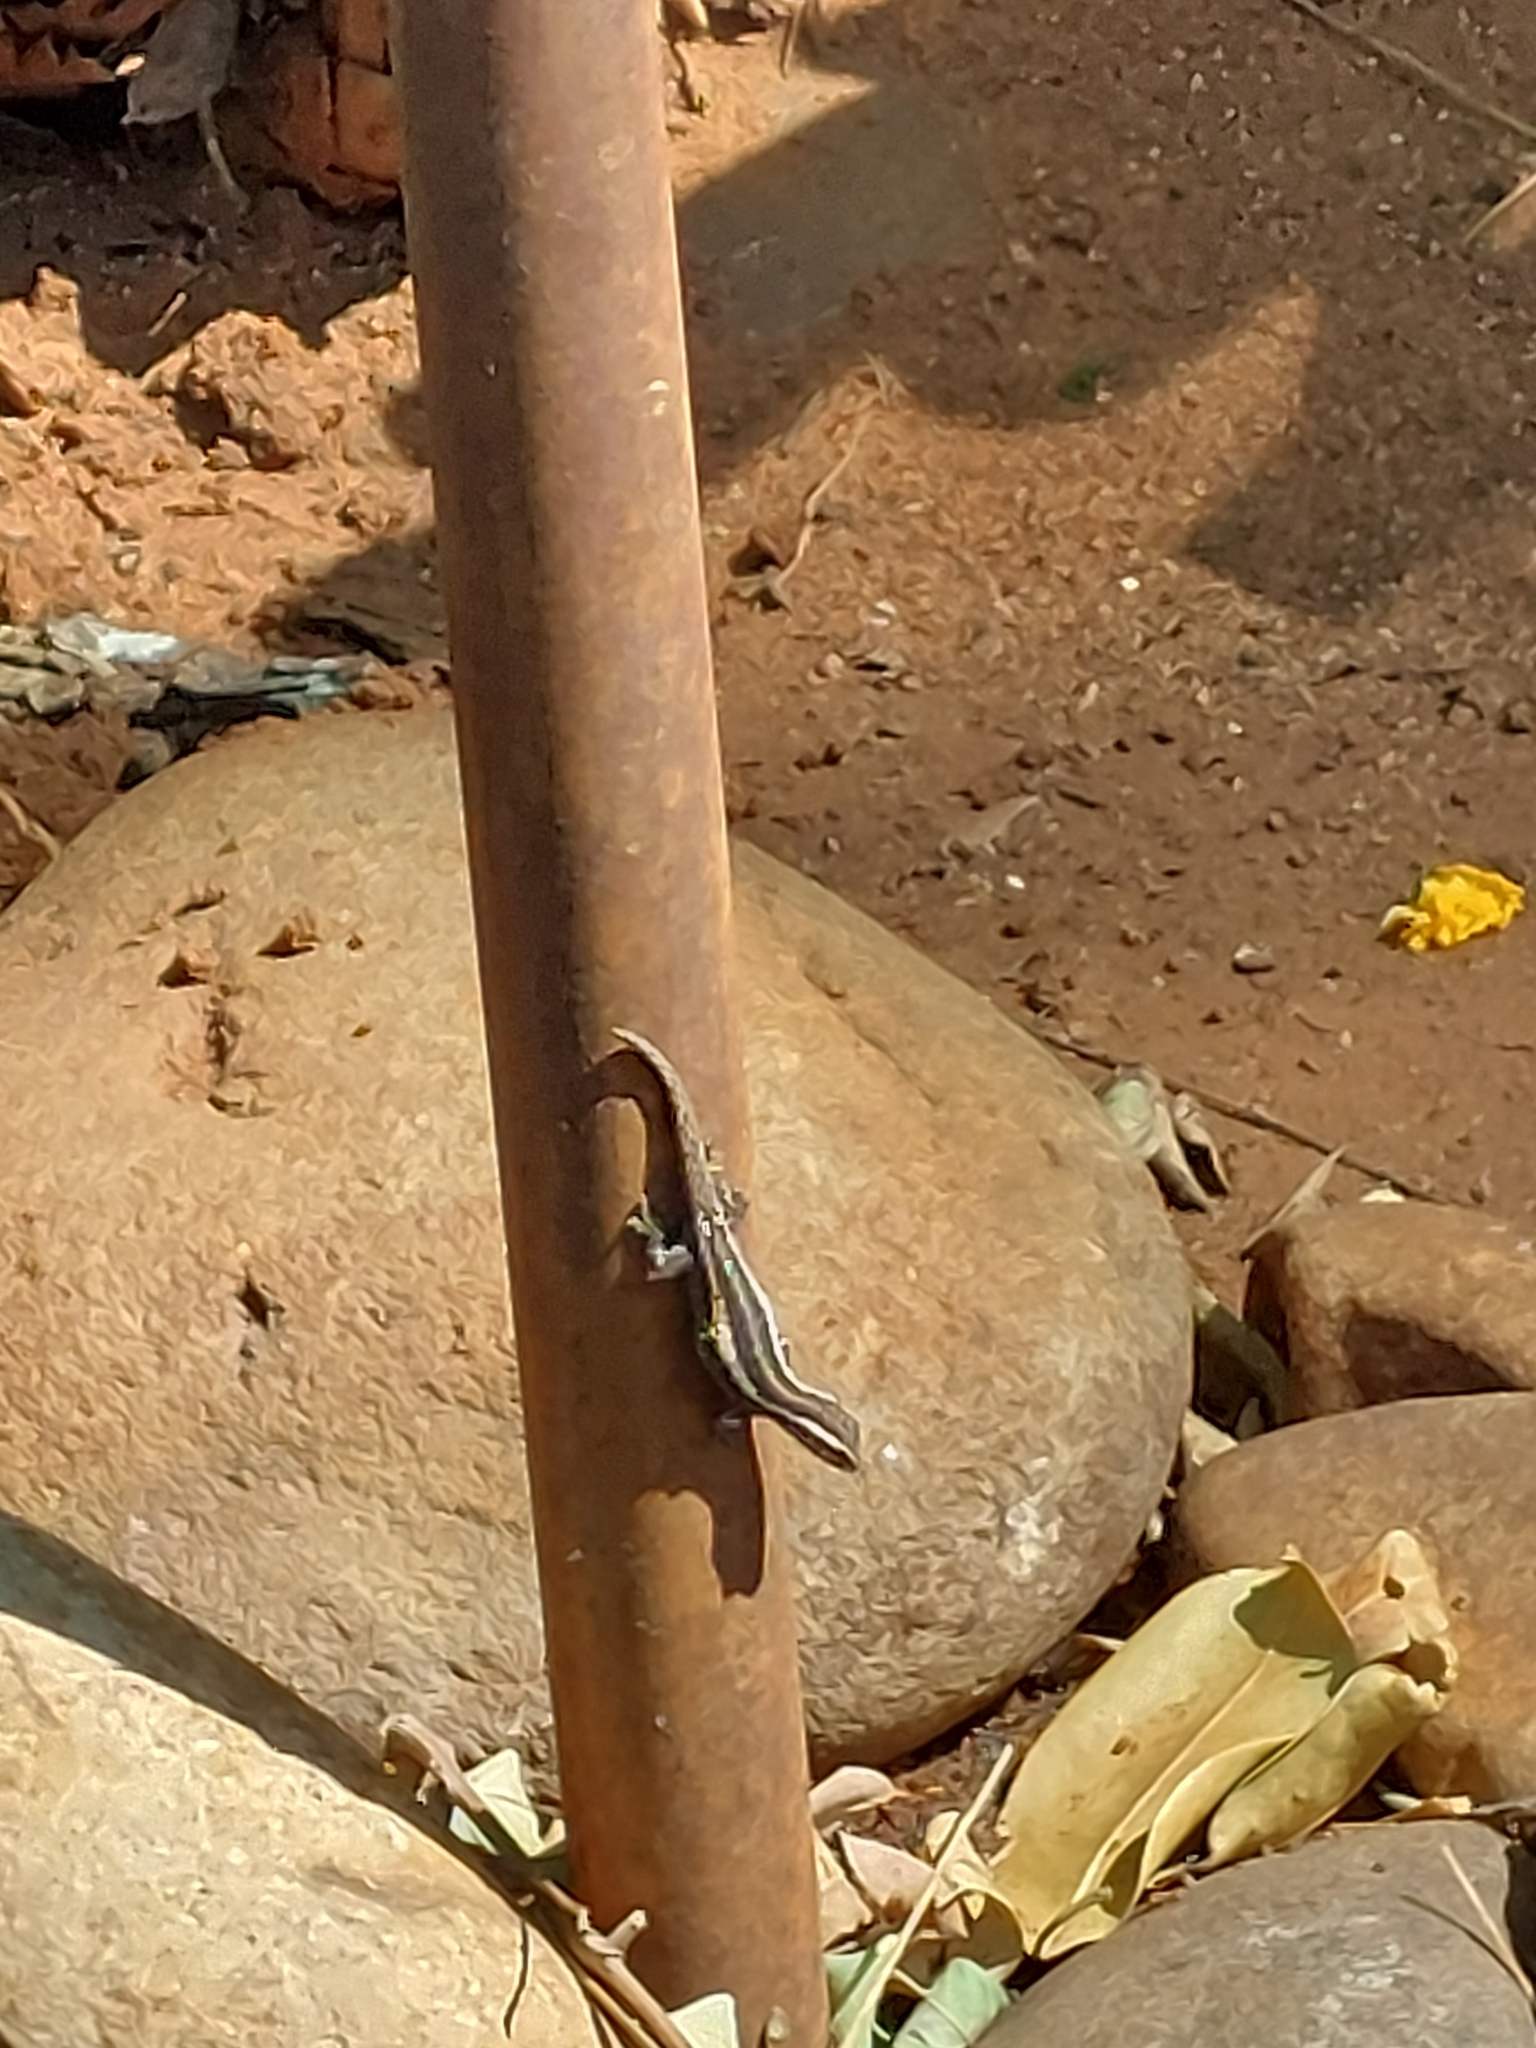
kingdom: Animalia
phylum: Chordata
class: Squamata
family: Gekkonidae
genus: Lygodactylus
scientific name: Lygodactylus capensis
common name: Cape dwarf gecko
